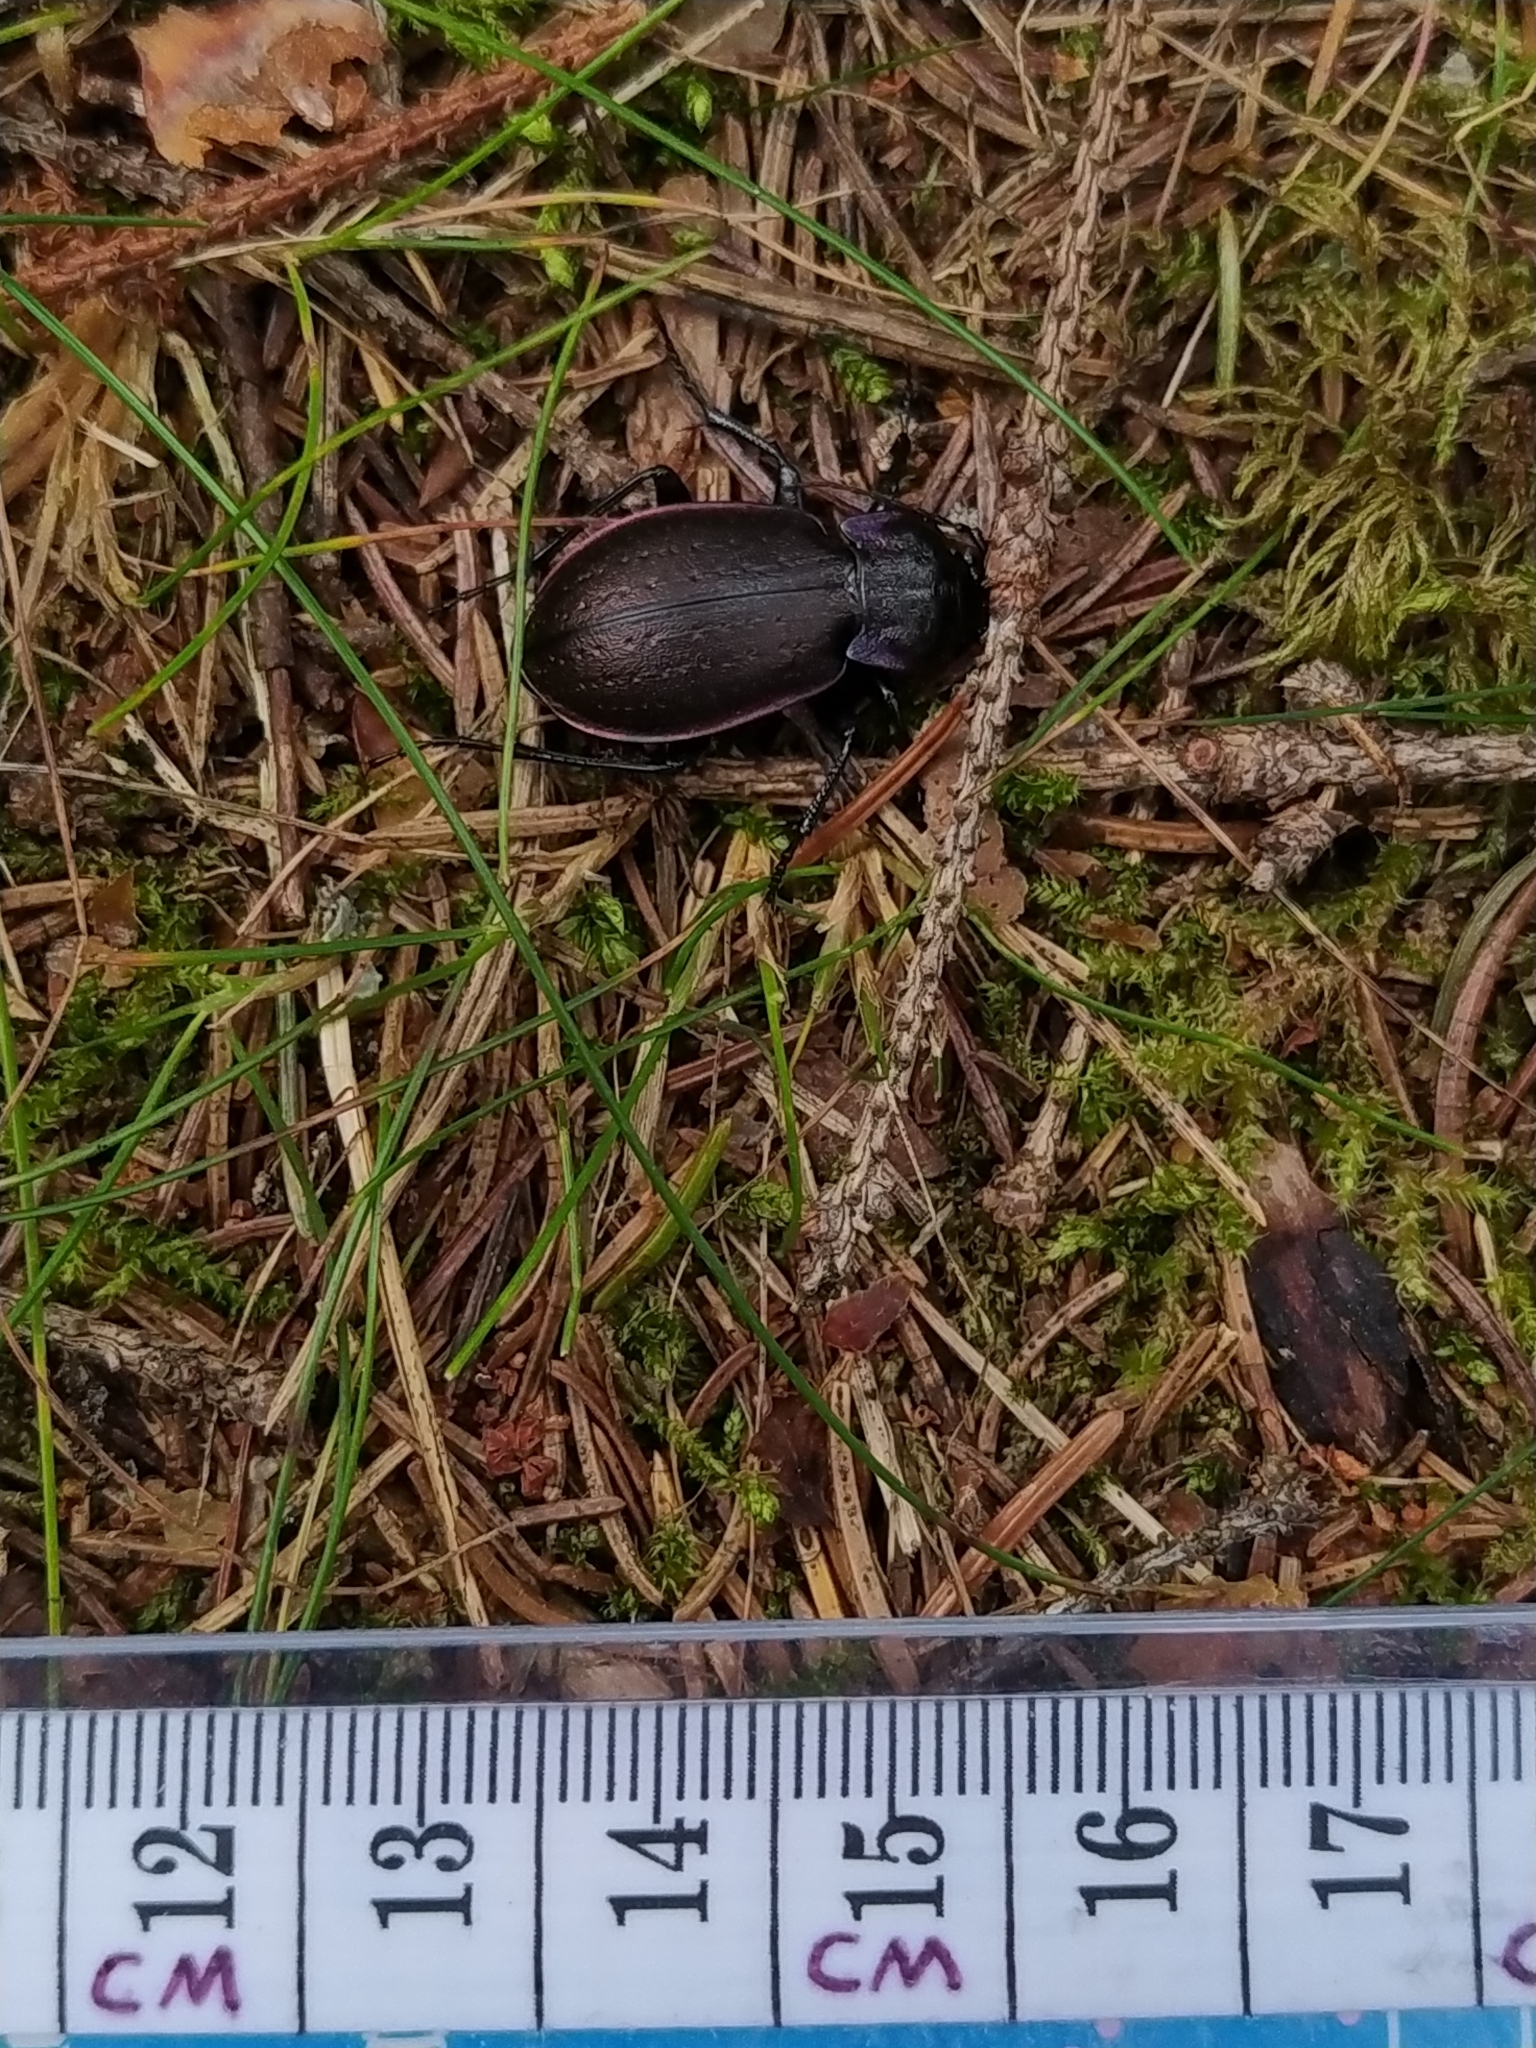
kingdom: Animalia
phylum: Arthropoda
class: Insecta
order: Coleoptera
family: Carabidae
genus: Carabus
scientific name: Carabus nemoralis
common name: European ground beetle
